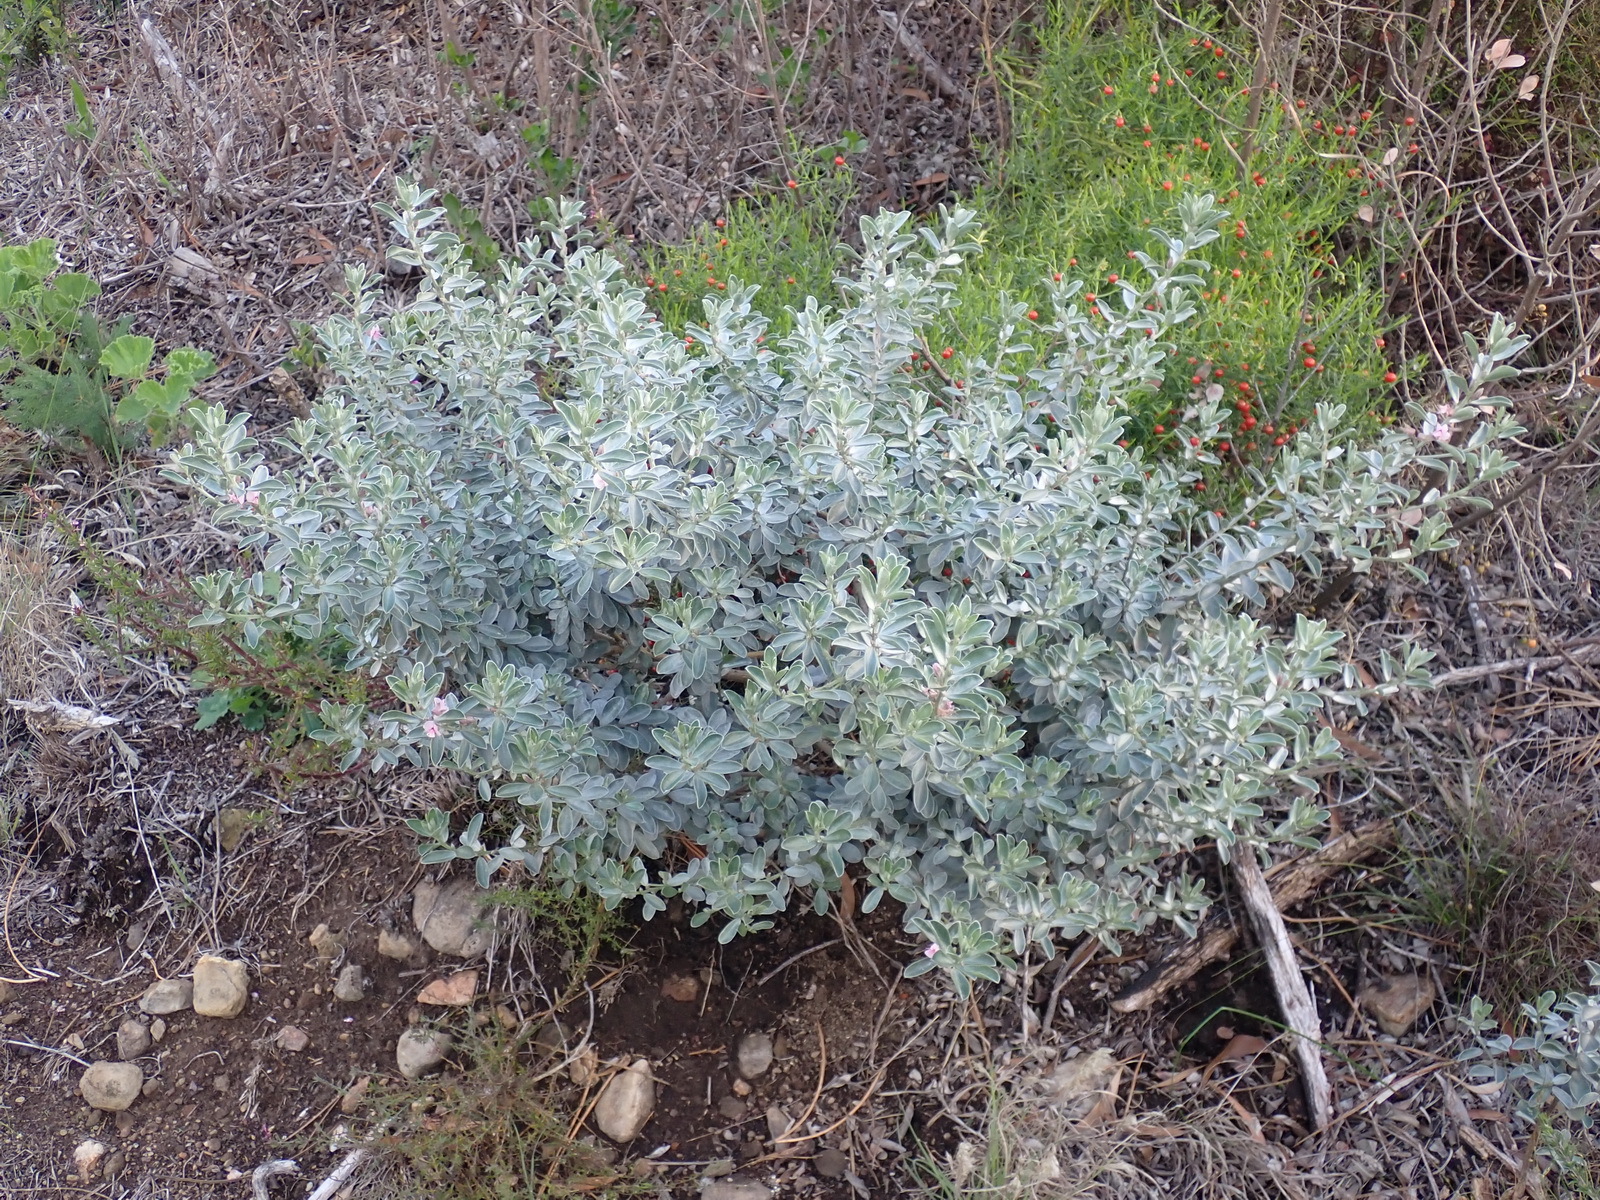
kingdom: Plantae
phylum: Tracheophyta
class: Magnoliopsida
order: Fabales
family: Fabaceae
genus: Podalyria
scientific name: Podalyria sericea
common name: Silver podalyria
